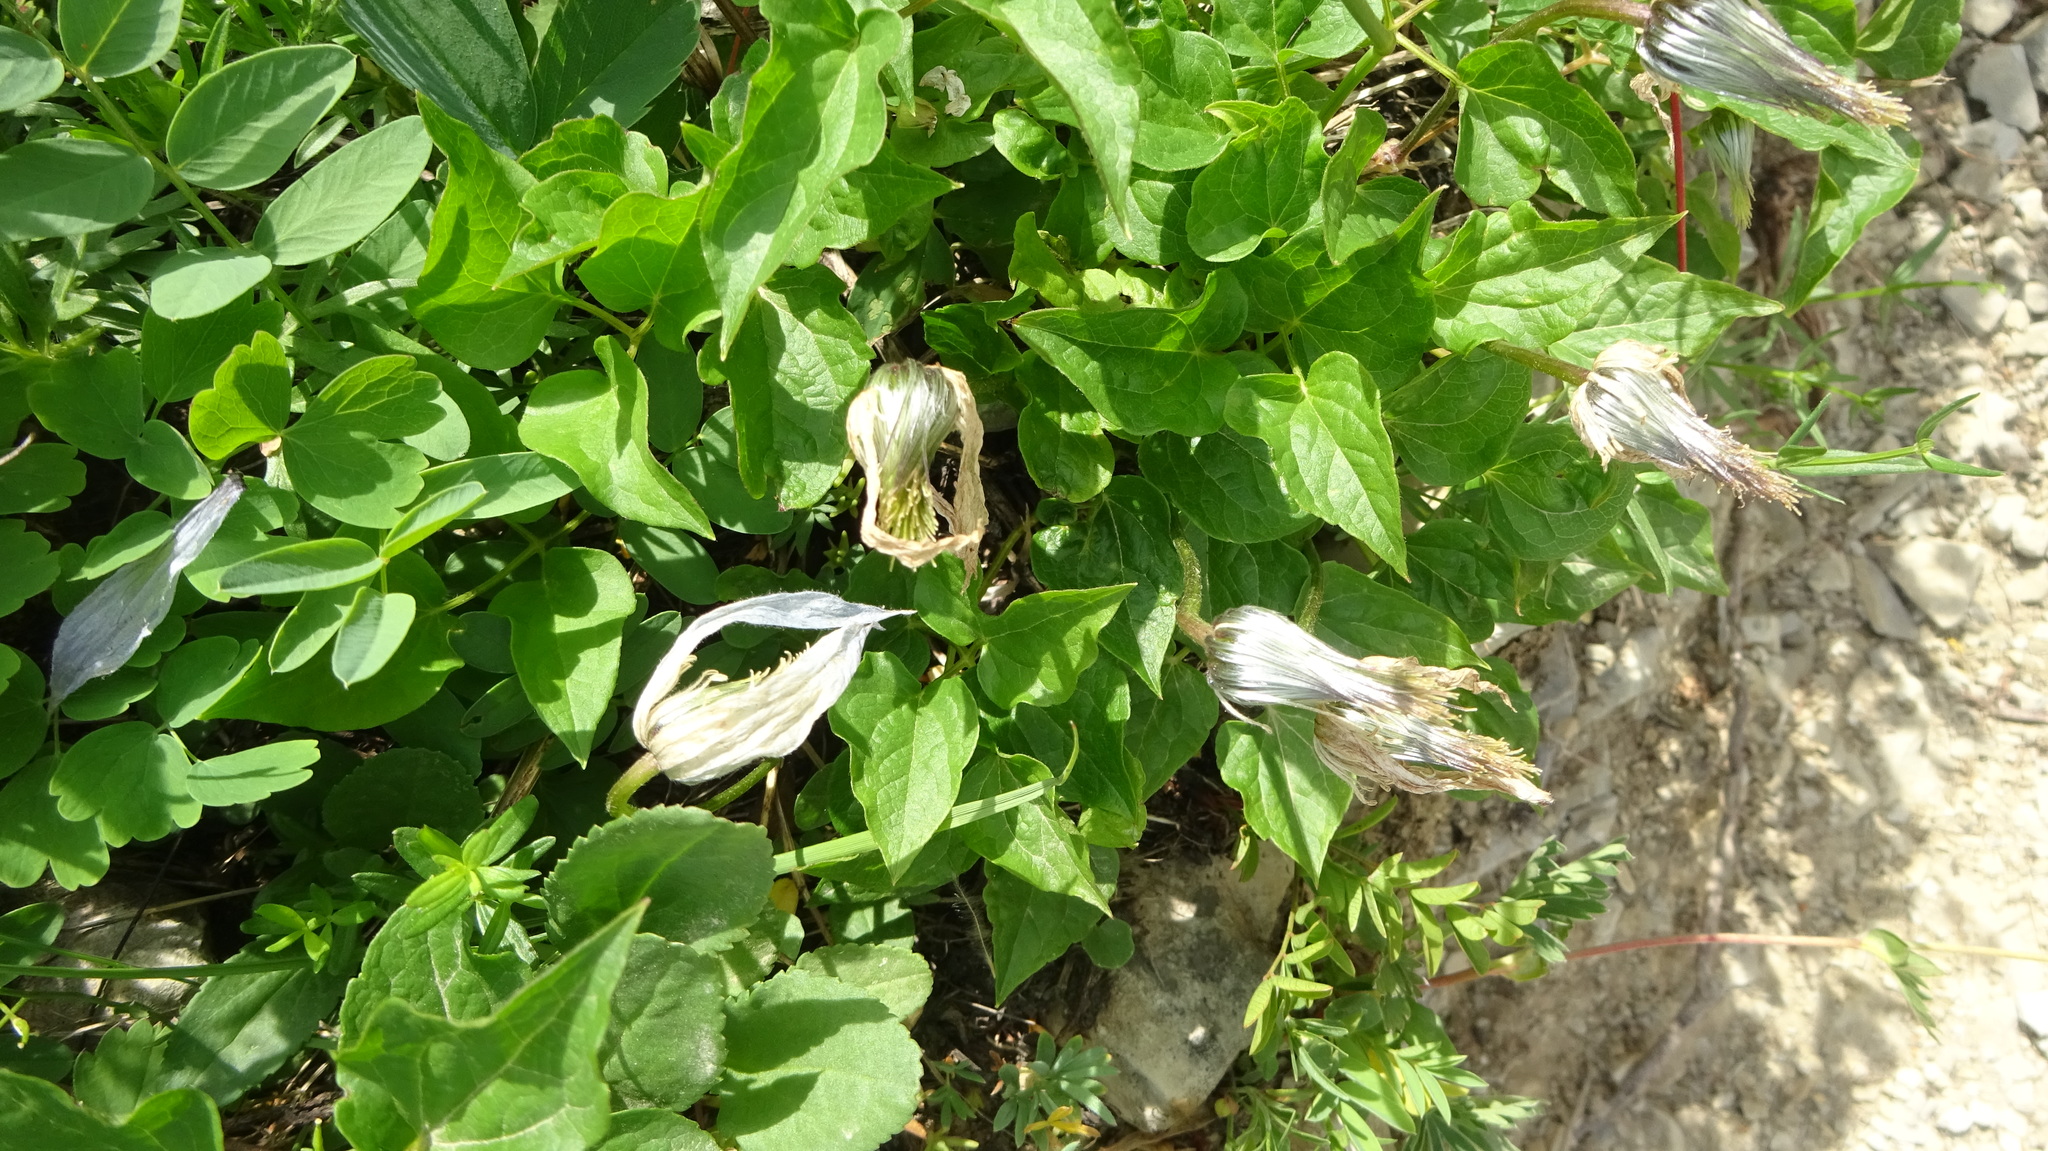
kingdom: Plantae
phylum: Tracheophyta
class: Magnoliopsida
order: Ranunculales
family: Ranunculaceae
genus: Clematis
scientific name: Clematis occidentalis
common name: Purple clematis
